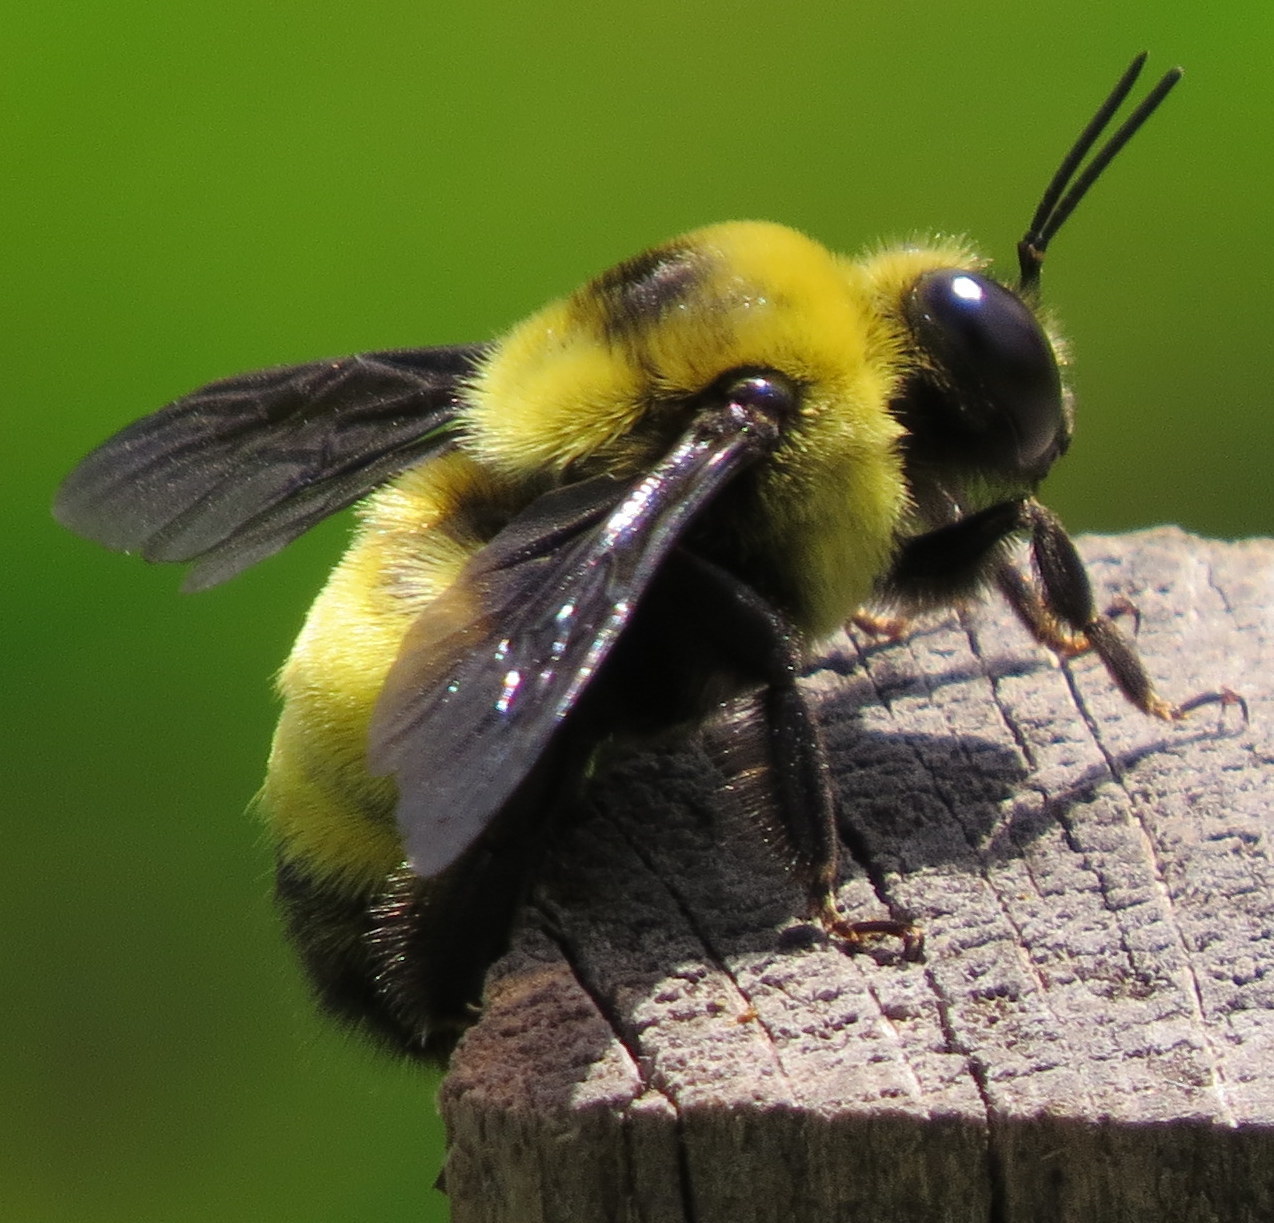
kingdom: Animalia
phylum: Arthropoda
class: Insecta
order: Hymenoptera
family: Apidae
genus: Bombus
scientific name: Bombus auricomus
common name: Black and gold bumble bee
